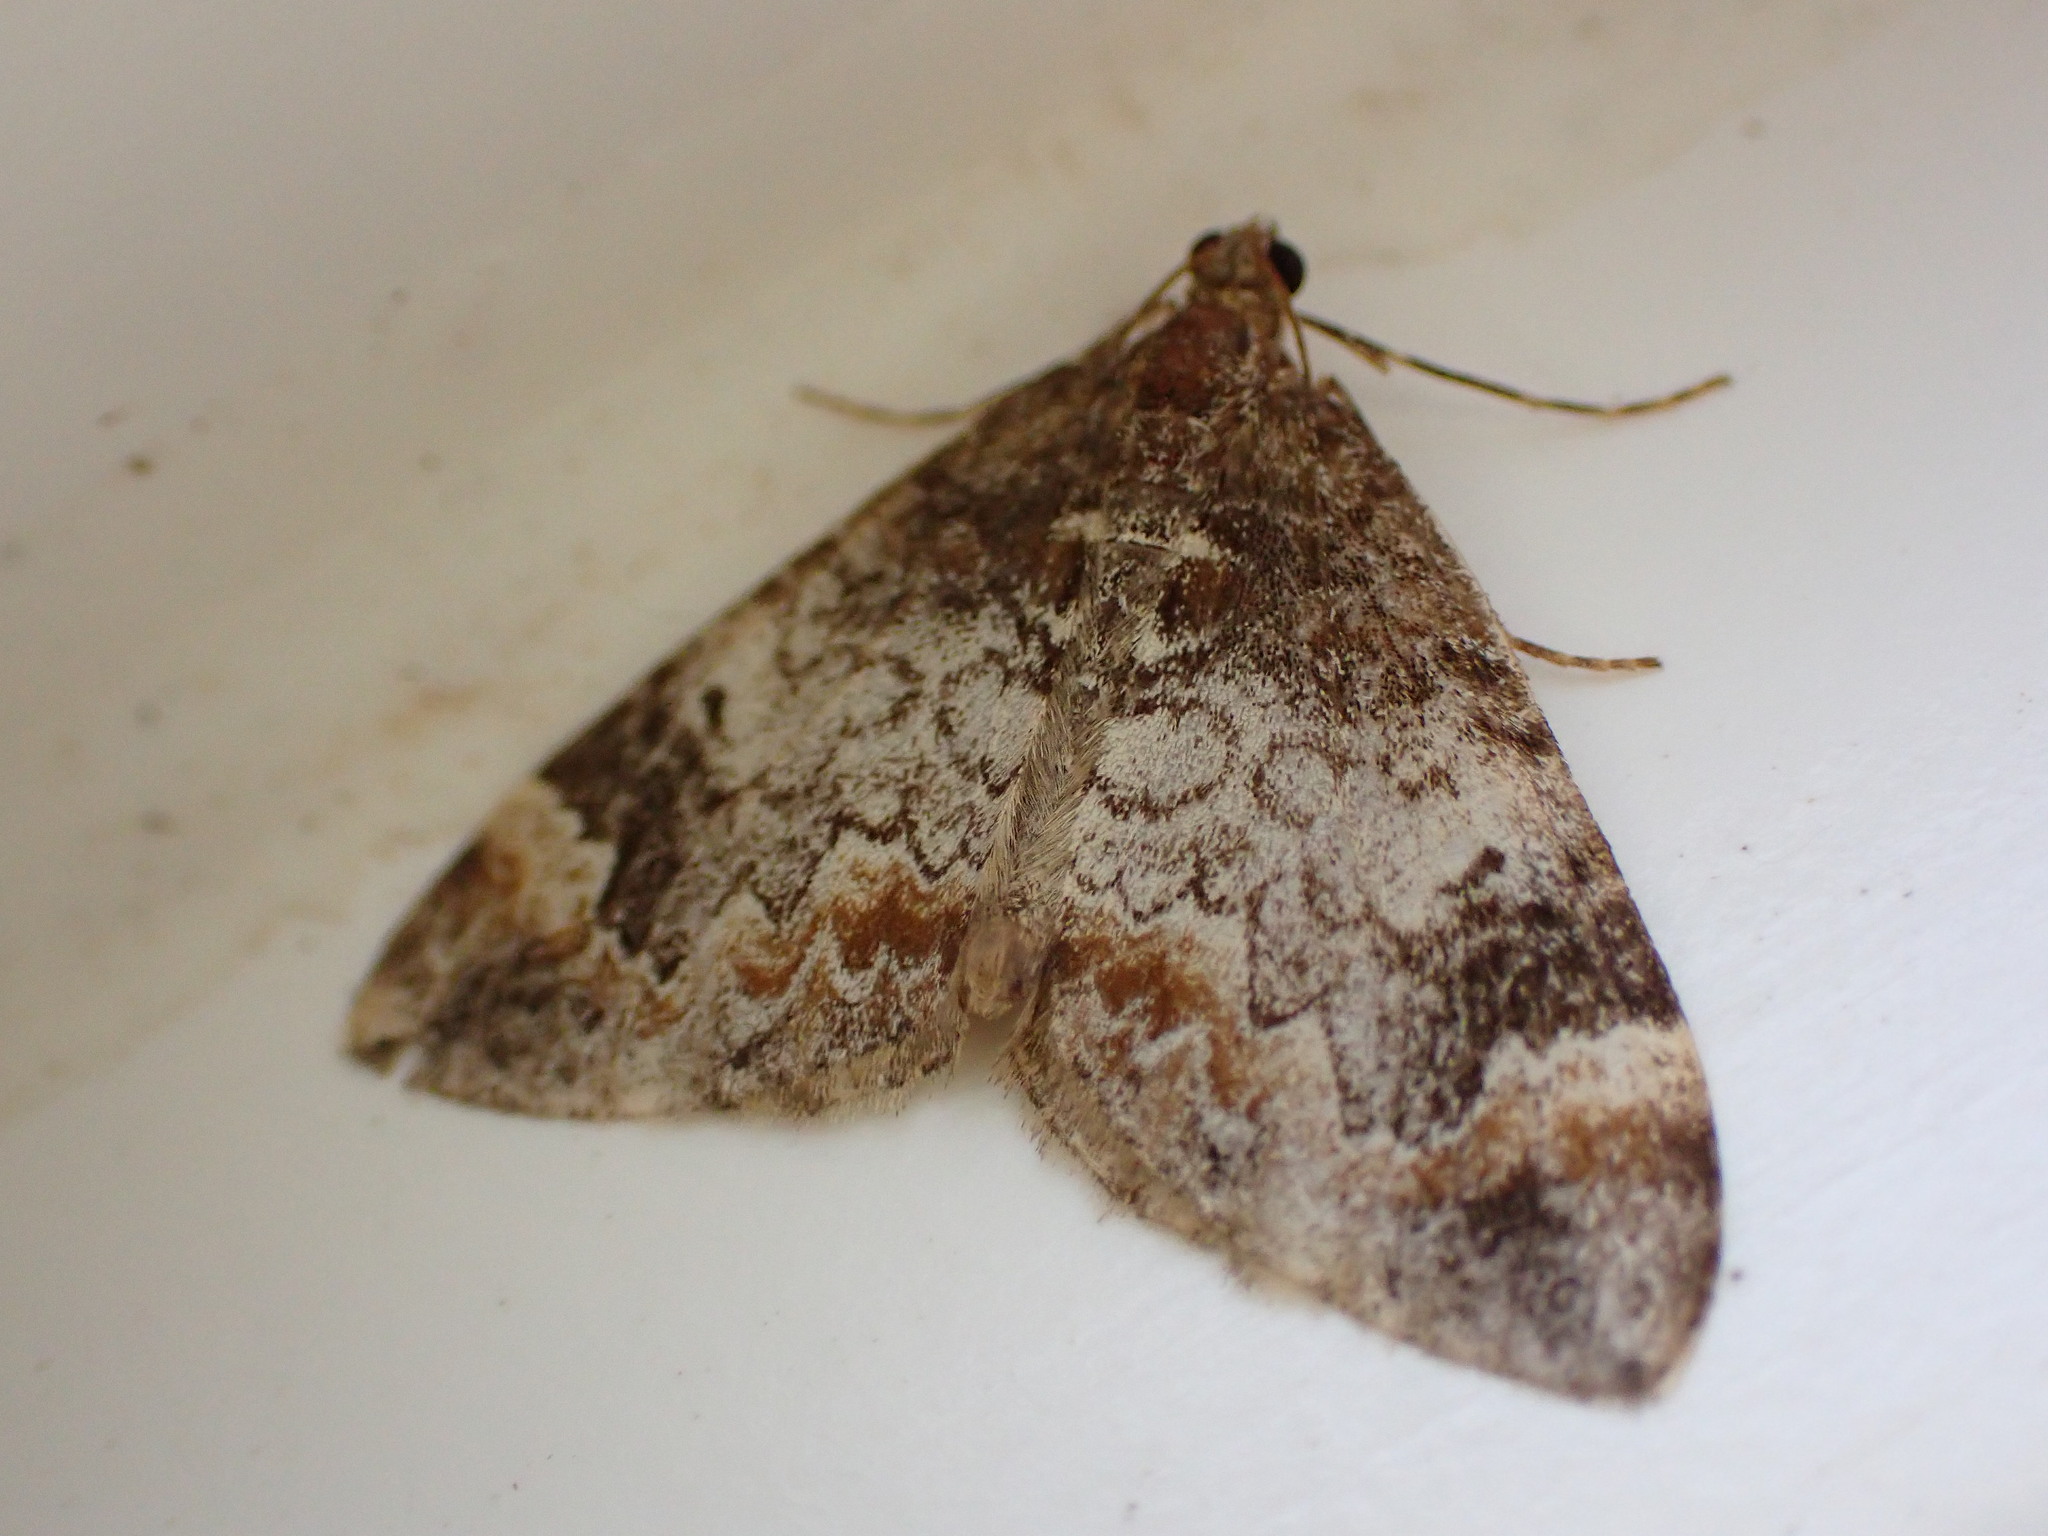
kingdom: Animalia
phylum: Arthropoda
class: Insecta
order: Lepidoptera
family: Geometridae
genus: Dysstroma
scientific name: Dysstroma truncata
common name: Common marbled carpet
